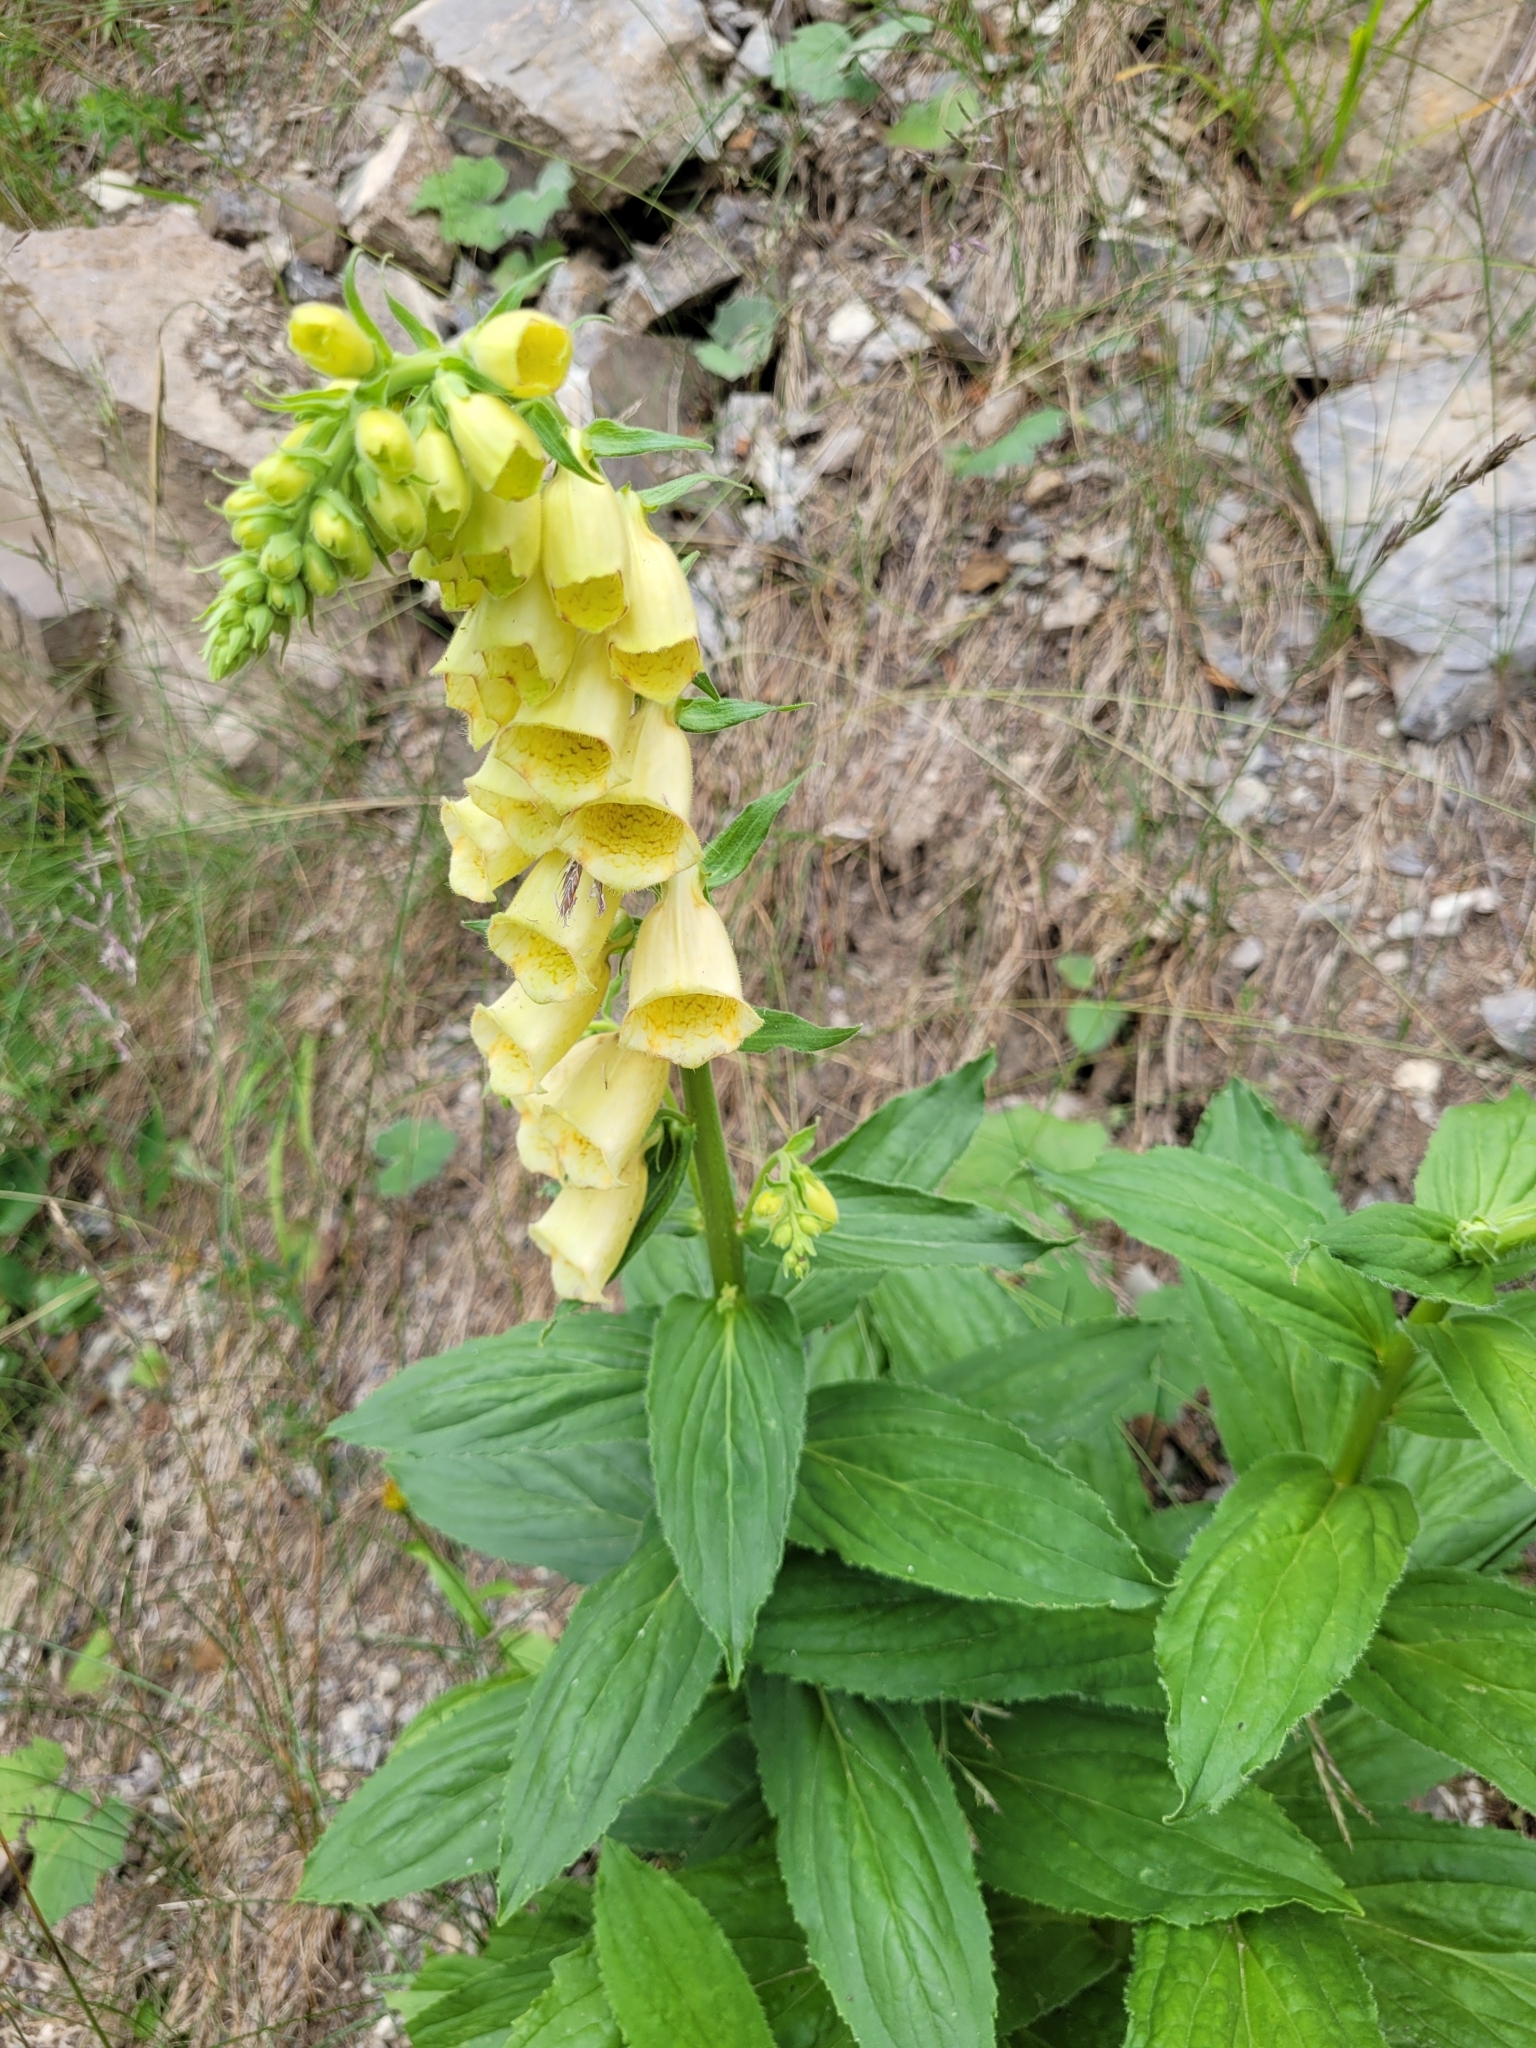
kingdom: Plantae
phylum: Tracheophyta
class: Magnoliopsida
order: Lamiales
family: Plantaginaceae
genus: Digitalis
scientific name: Digitalis grandiflora
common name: Yellow foxglove
